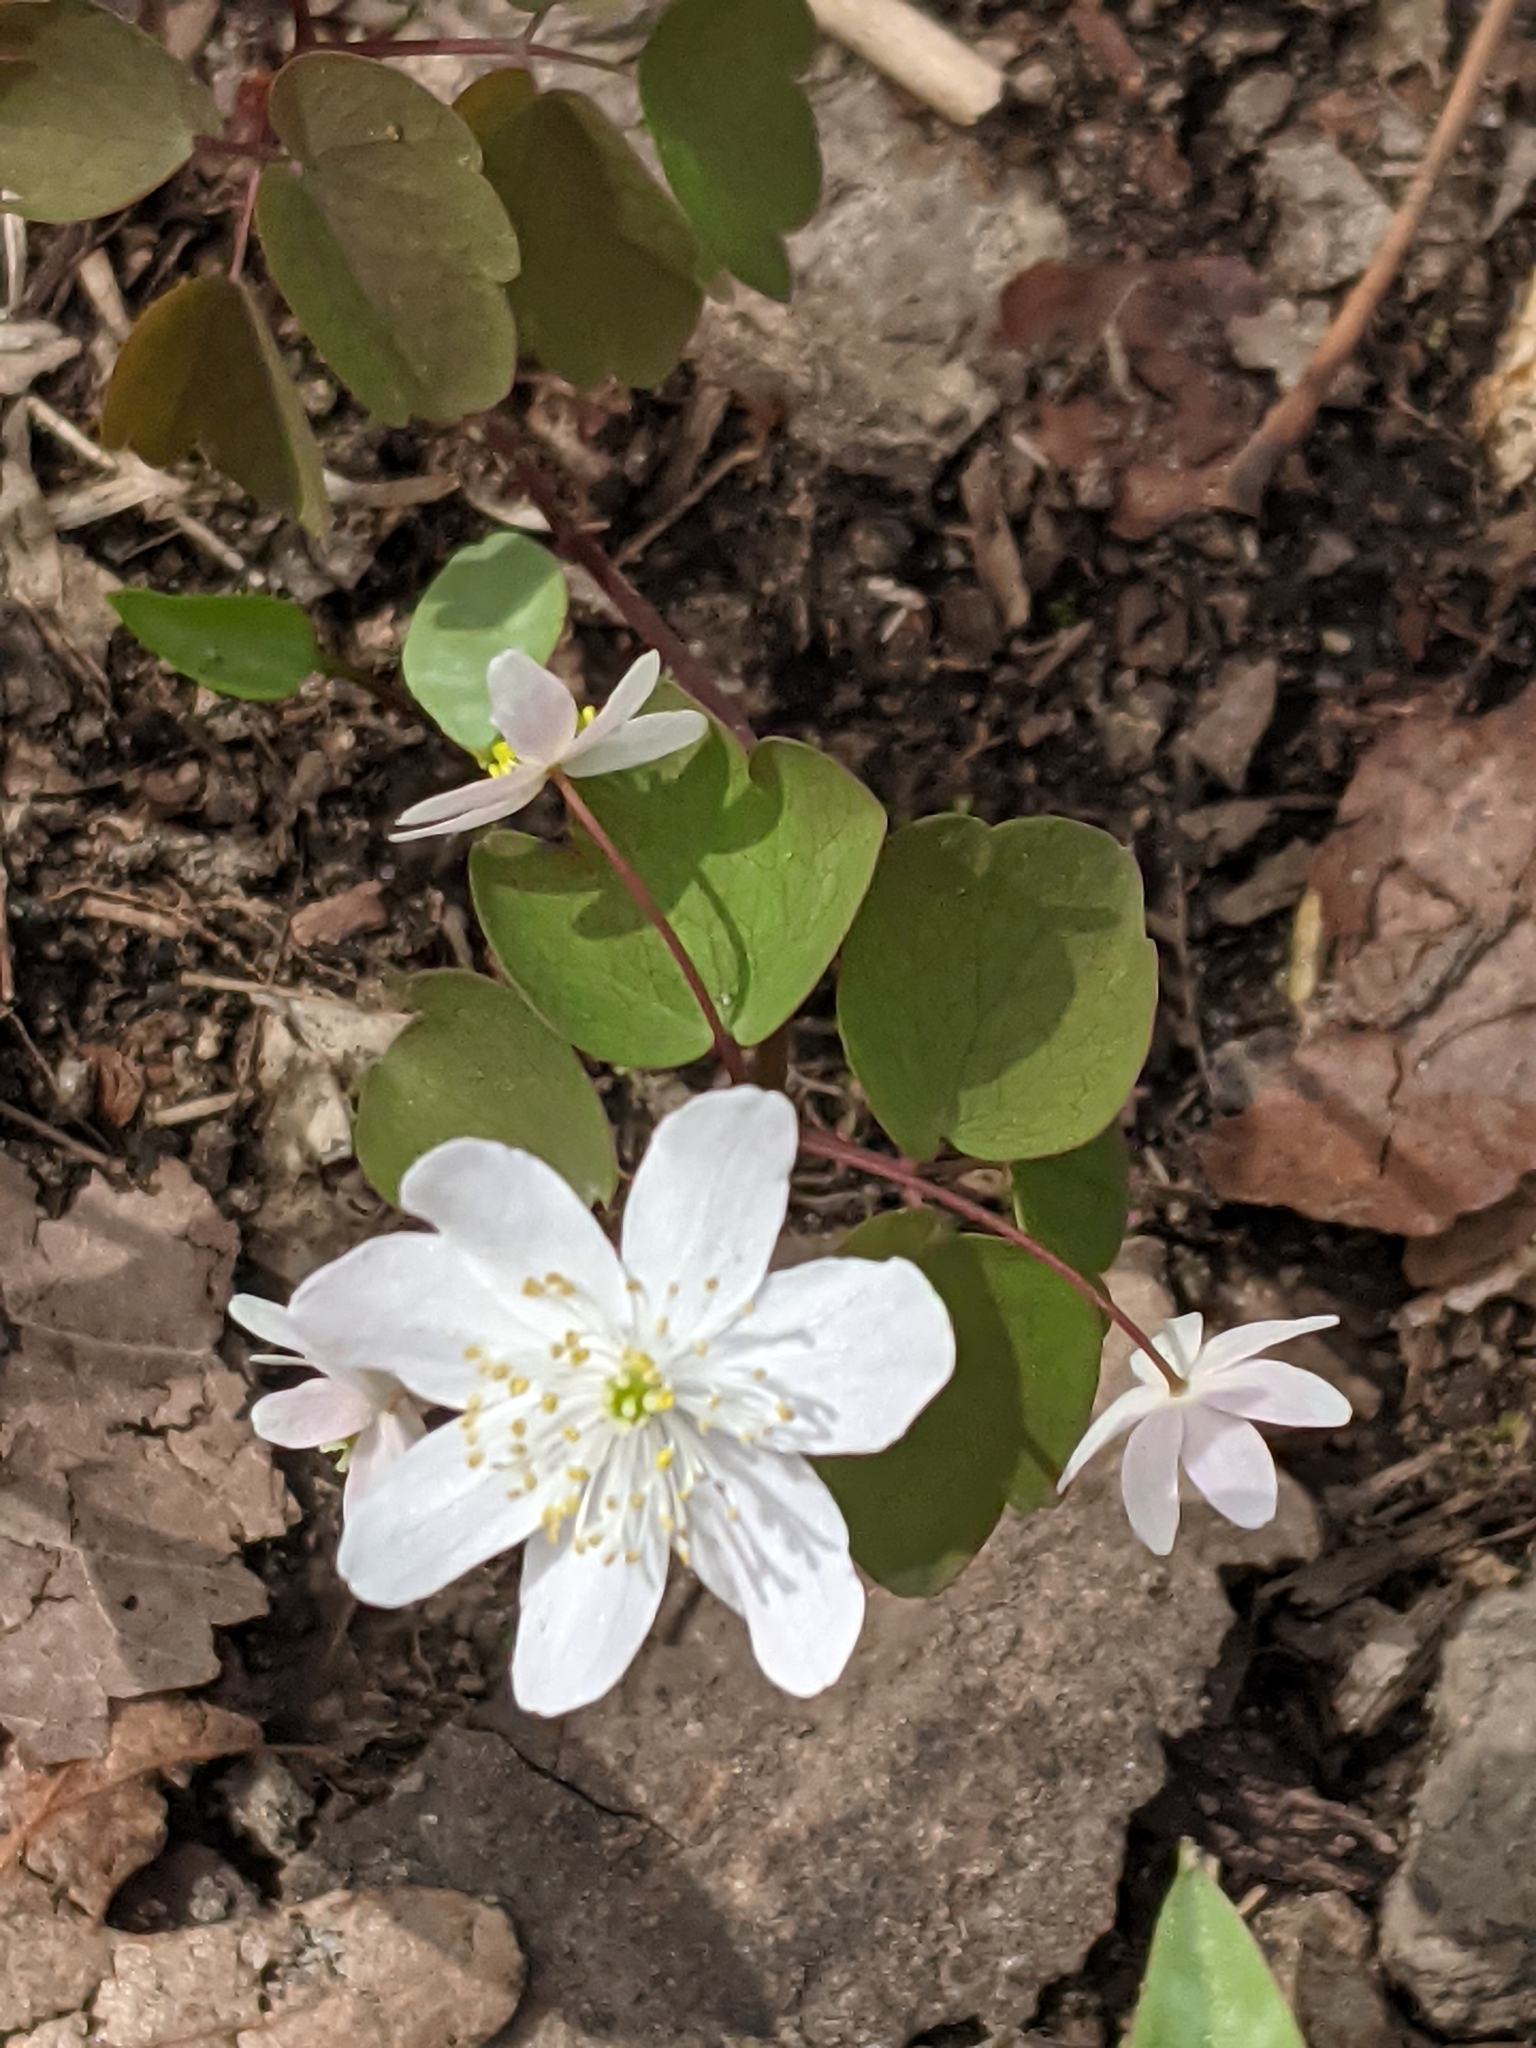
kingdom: Plantae
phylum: Tracheophyta
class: Magnoliopsida
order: Ranunculales
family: Ranunculaceae
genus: Thalictrum
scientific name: Thalictrum thalictroides
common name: Rue-anemone
